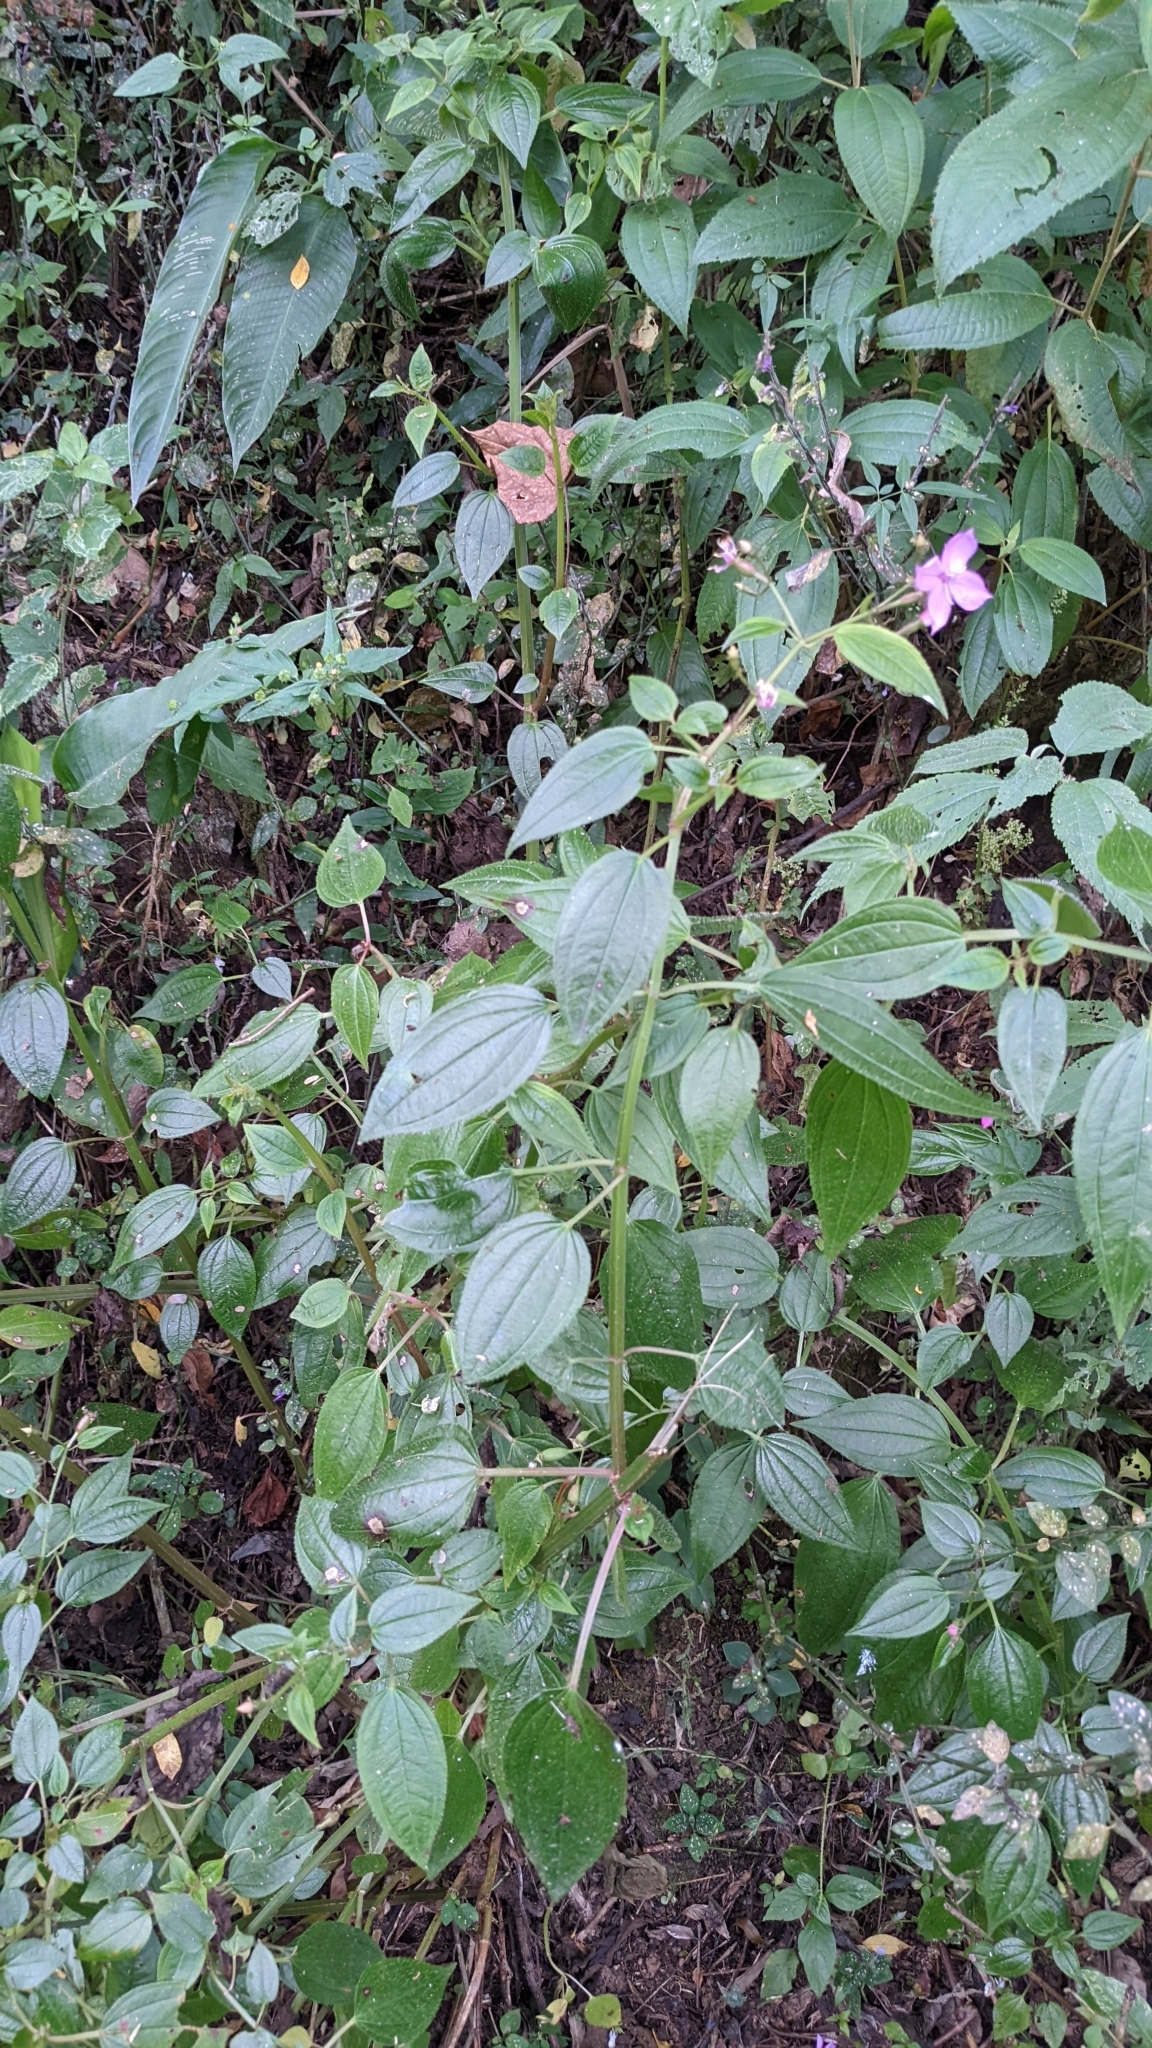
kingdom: Plantae
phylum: Tracheophyta
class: Magnoliopsida
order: Myrtales
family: Melastomataceae
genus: Arthrostemma
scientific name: Arthrostemma ciliatum
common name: Everblooming eavender
